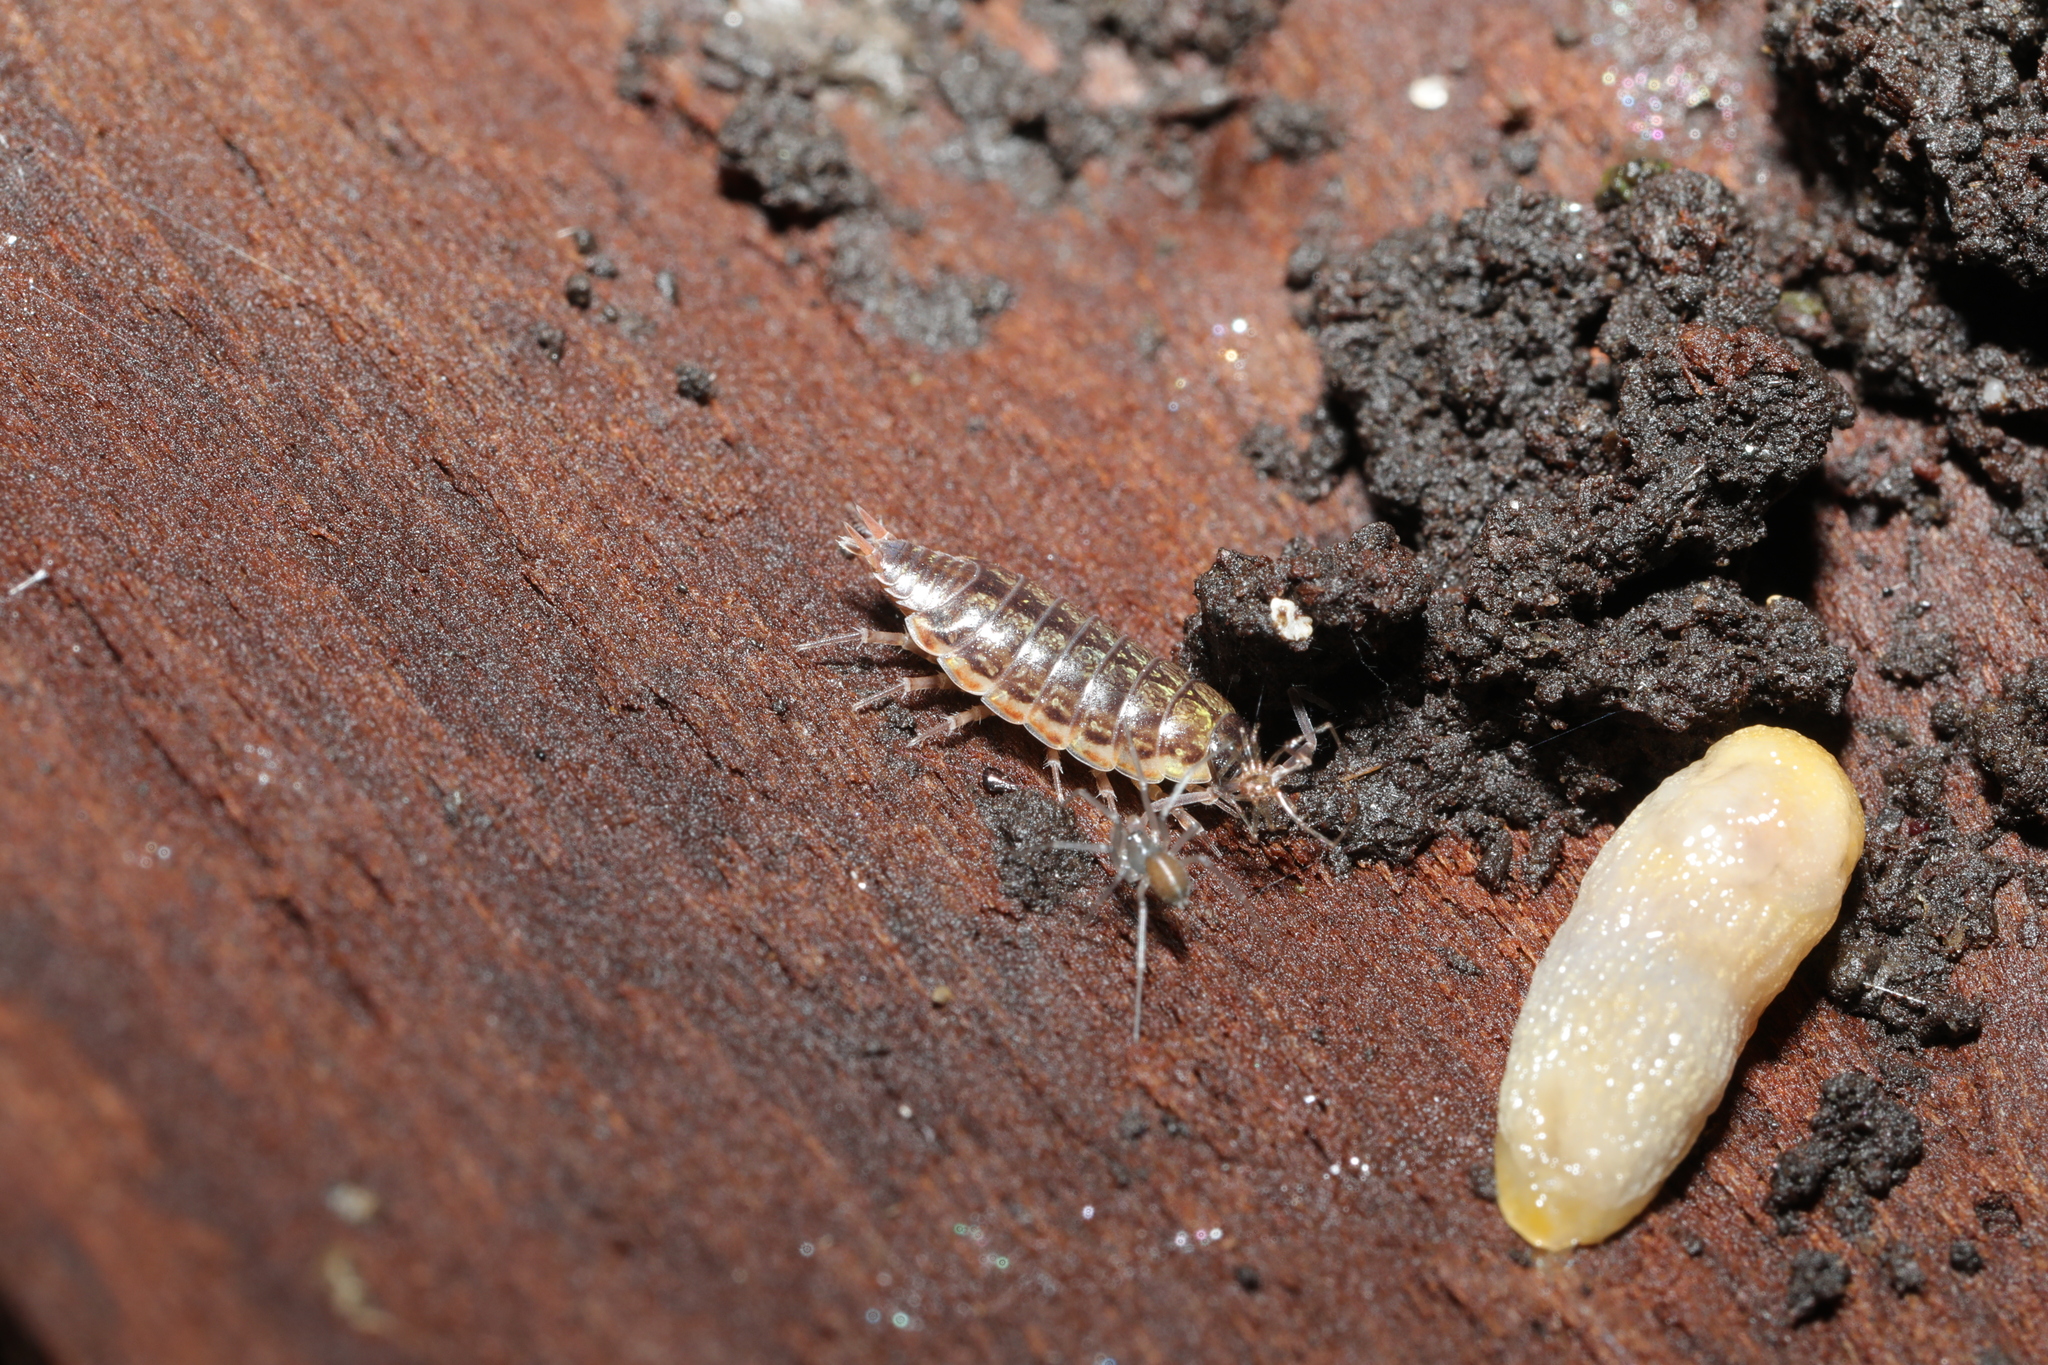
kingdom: Animalia
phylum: Arthropoda
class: Malacostraca
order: Isopoda
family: Philosciidae
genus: Philoscia
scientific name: Philoscia muscorum
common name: Common striped woodlouse
